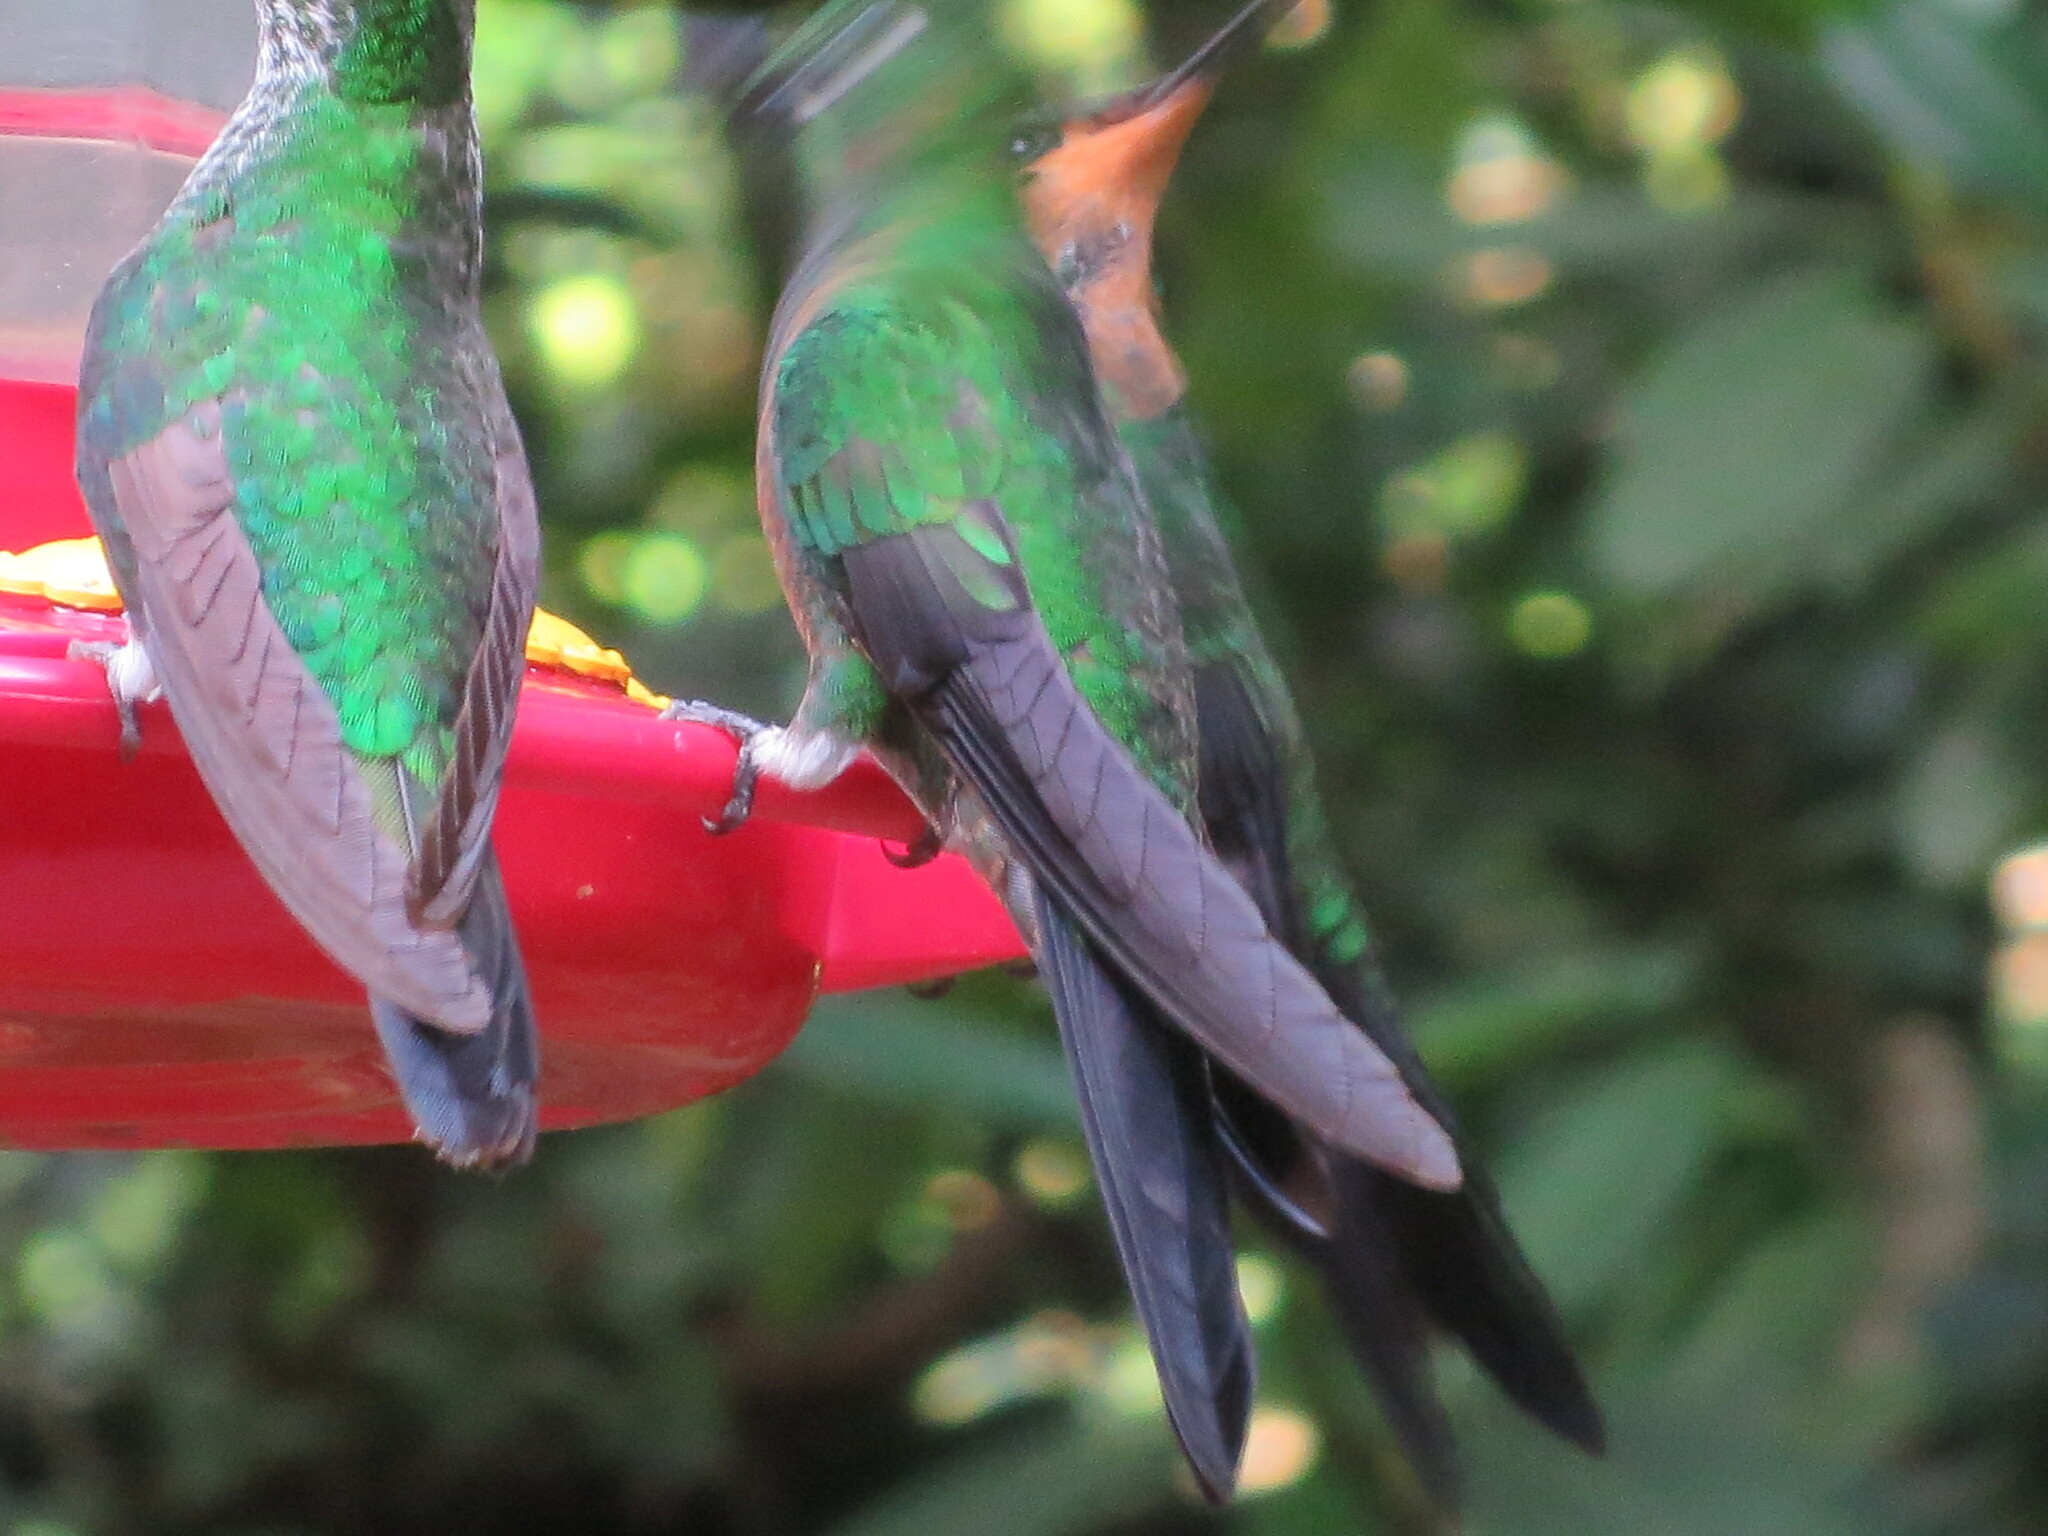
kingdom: Animalia
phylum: Chordata
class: Aves
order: Apodiformes
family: Trochilidae
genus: Heliodoxa
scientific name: Heliodoxa jacula
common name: Green-crowned brilliant
